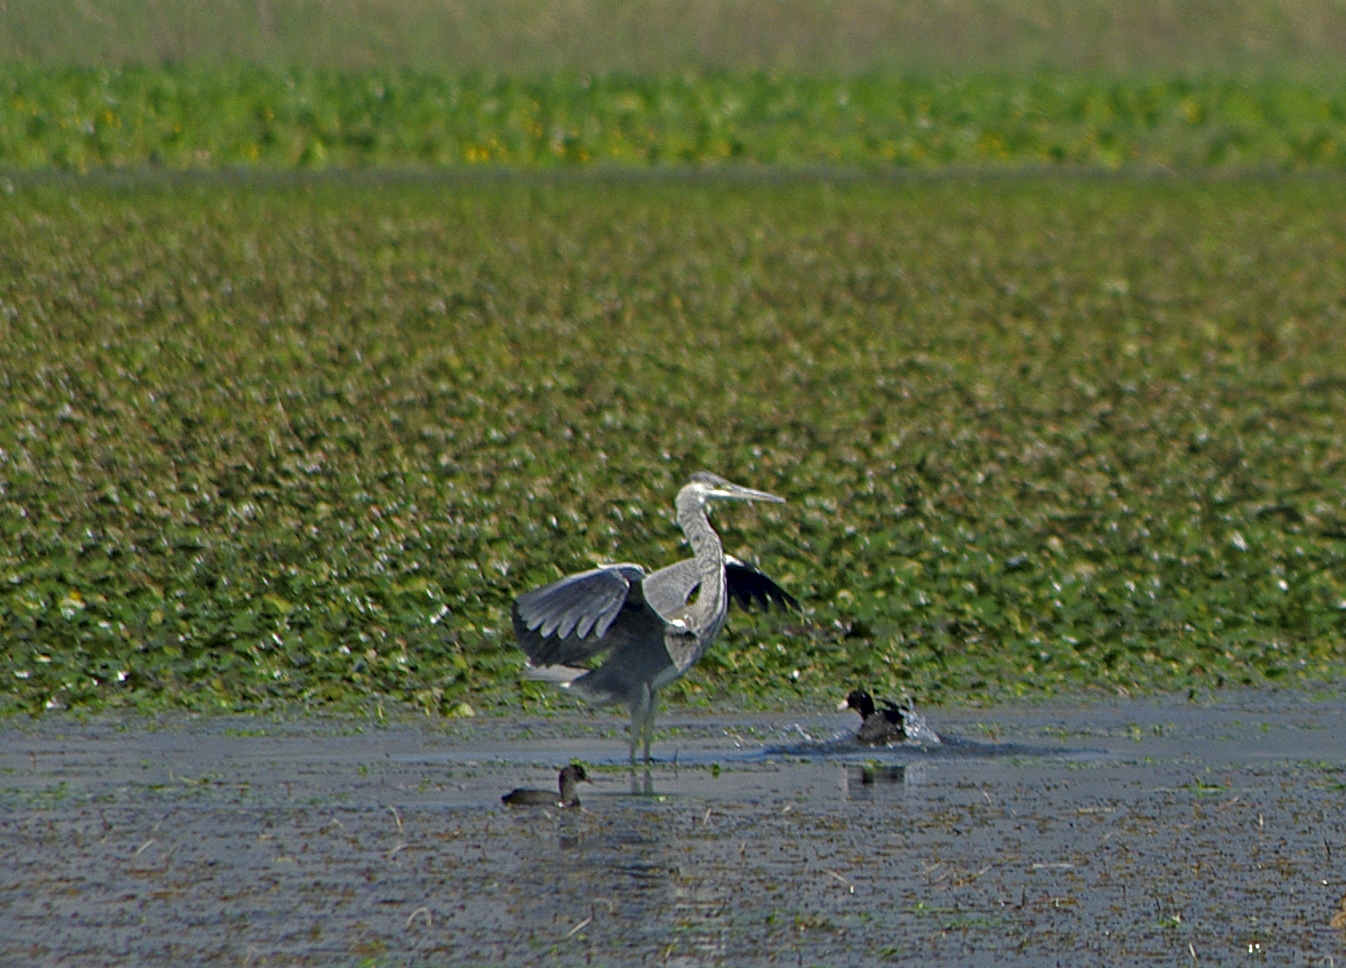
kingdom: Animalia
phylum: Chordata
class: Aves
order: Pelecaniformes
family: Ardeidae
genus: Ardea
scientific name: Ardea cinerea
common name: Grey heron
